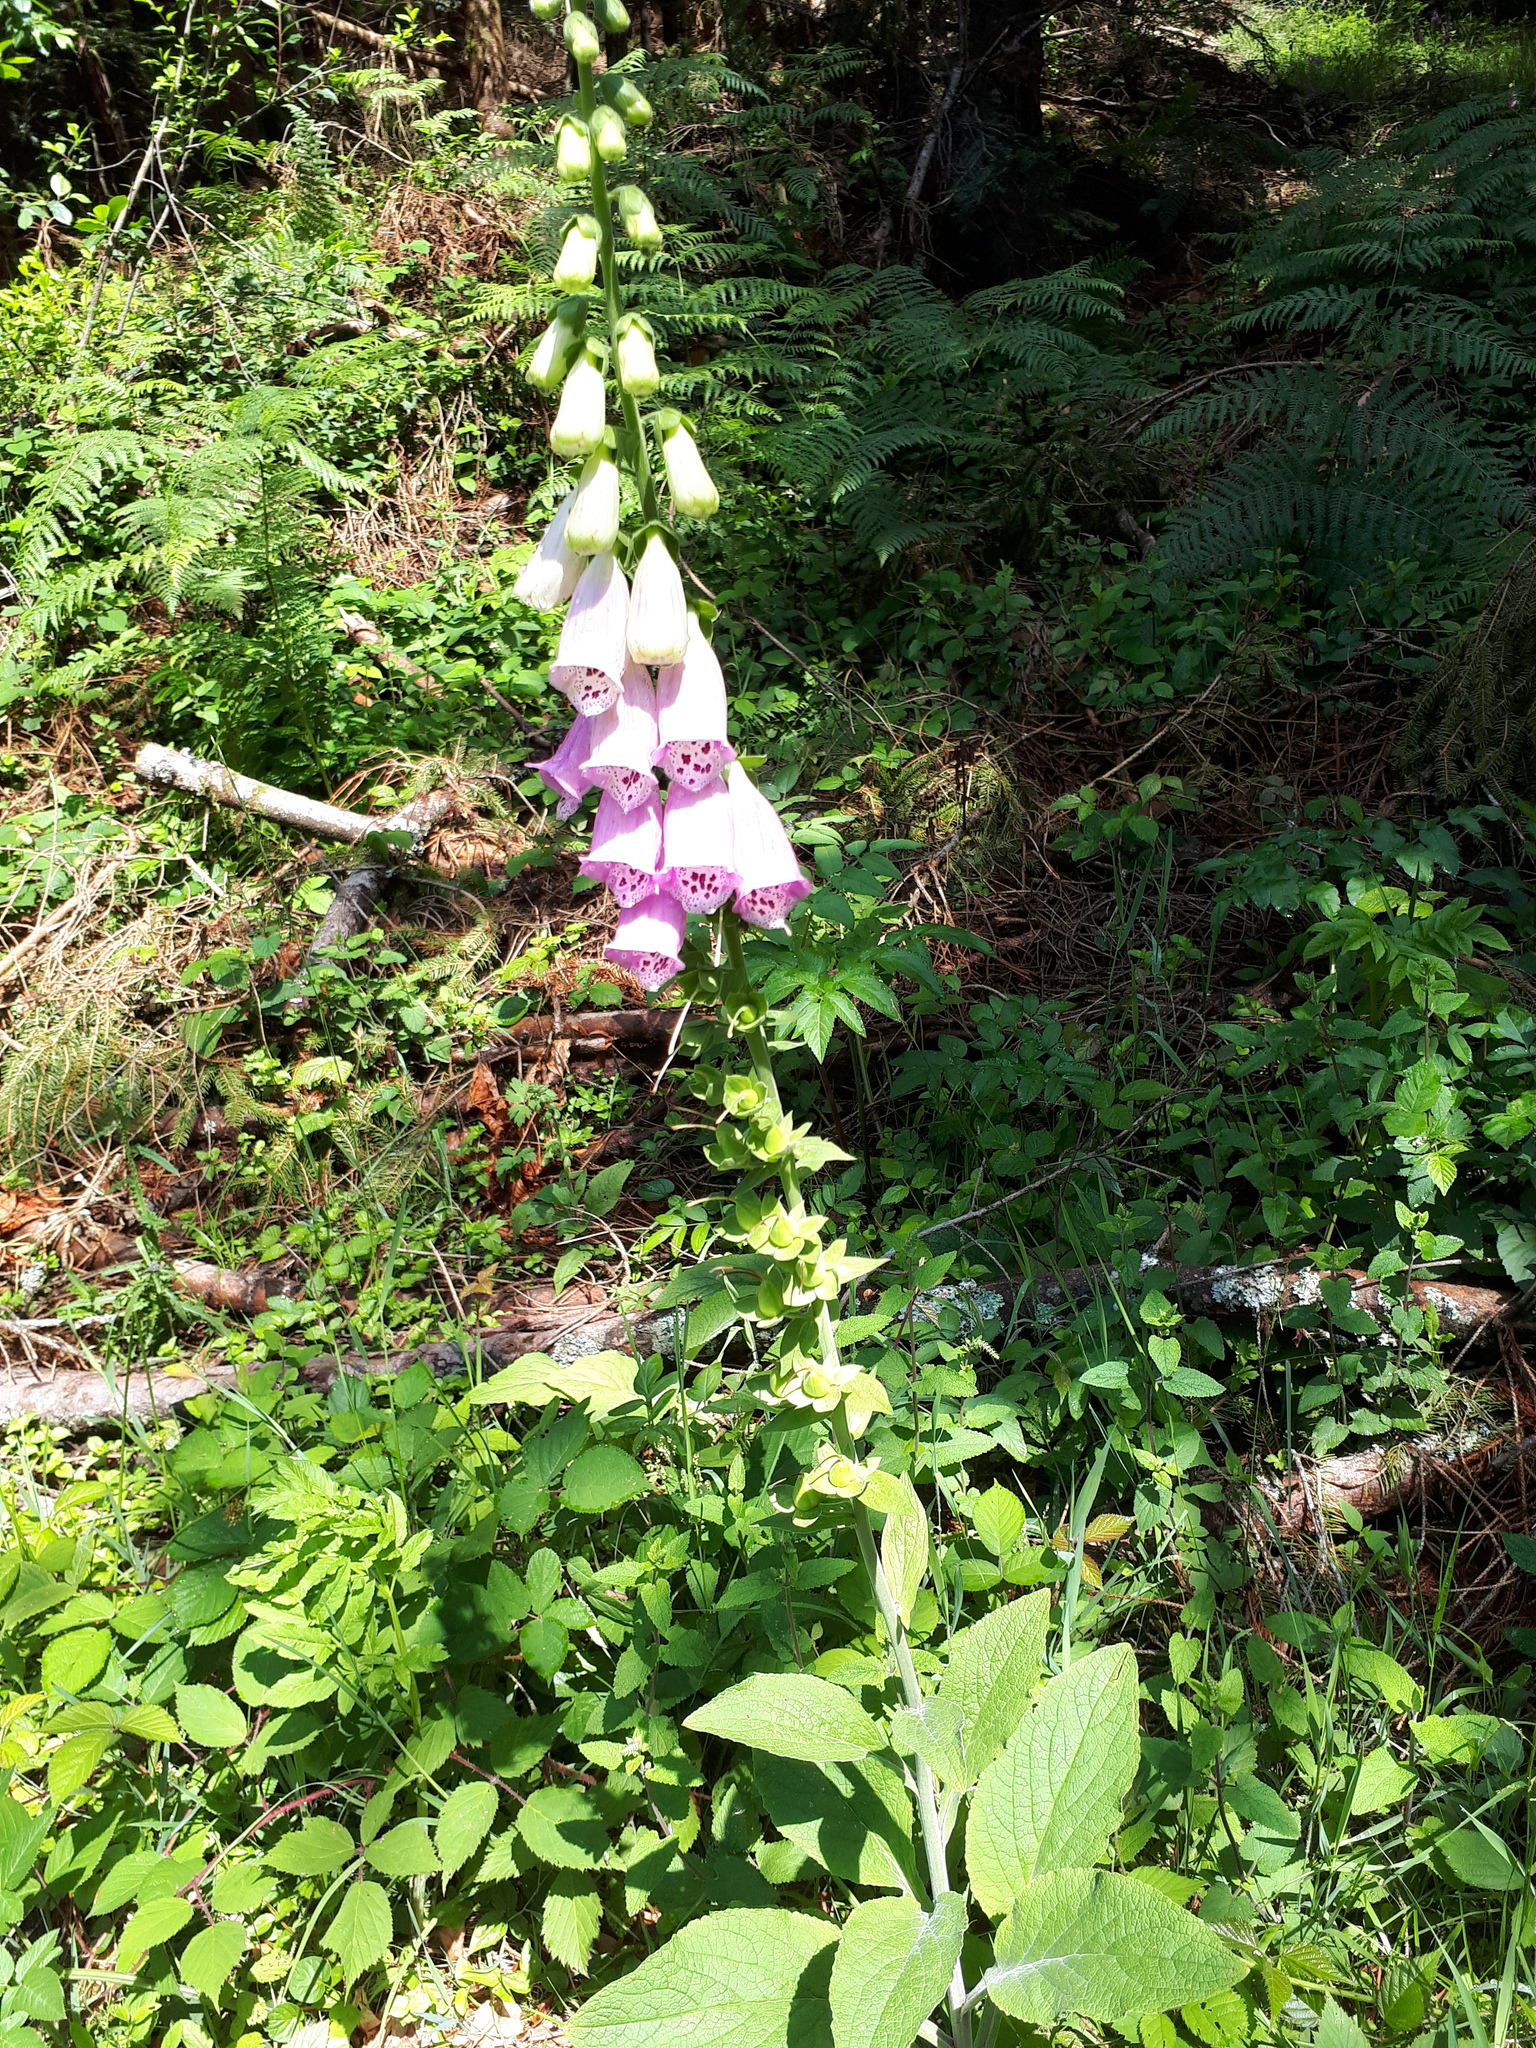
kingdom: Plantae
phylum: Tracheophyta
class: Magnoliopsida
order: Lamiales
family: Plantaginaceae
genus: Digitalis
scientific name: Digitalis purpurea
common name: Foxglove
